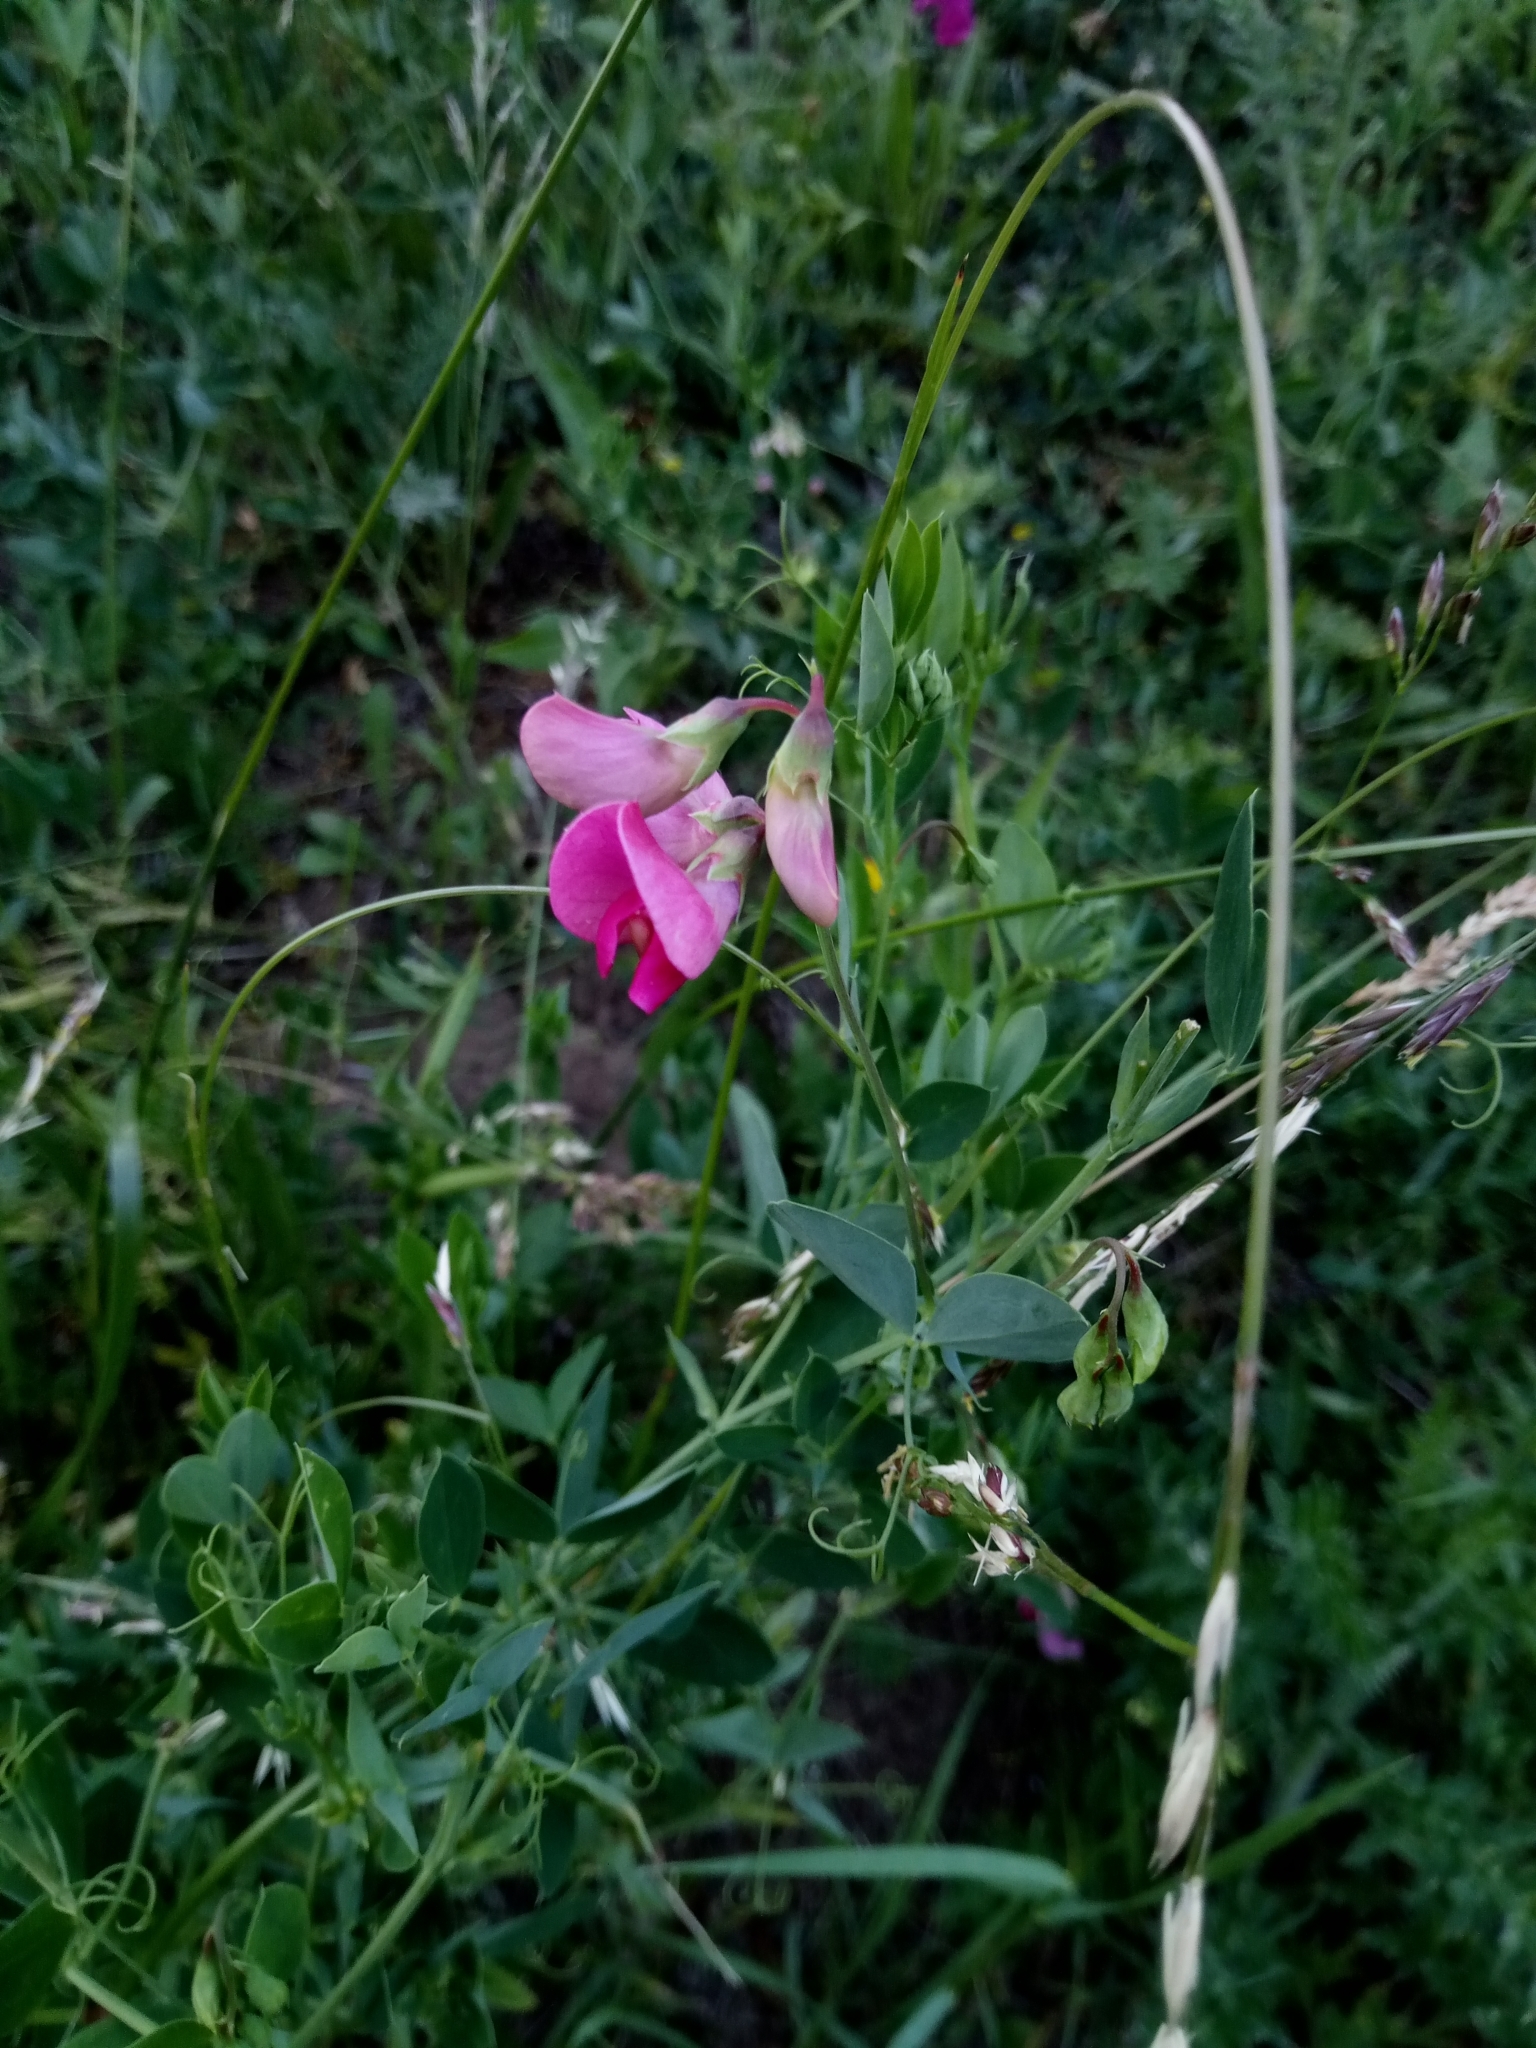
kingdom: Plantae
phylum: Tracheophyta
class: Magnoliopsida
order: Fabales
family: Fabaceae
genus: Lathyrus
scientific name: Lathyrus tuberosus
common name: Tuberous pea
